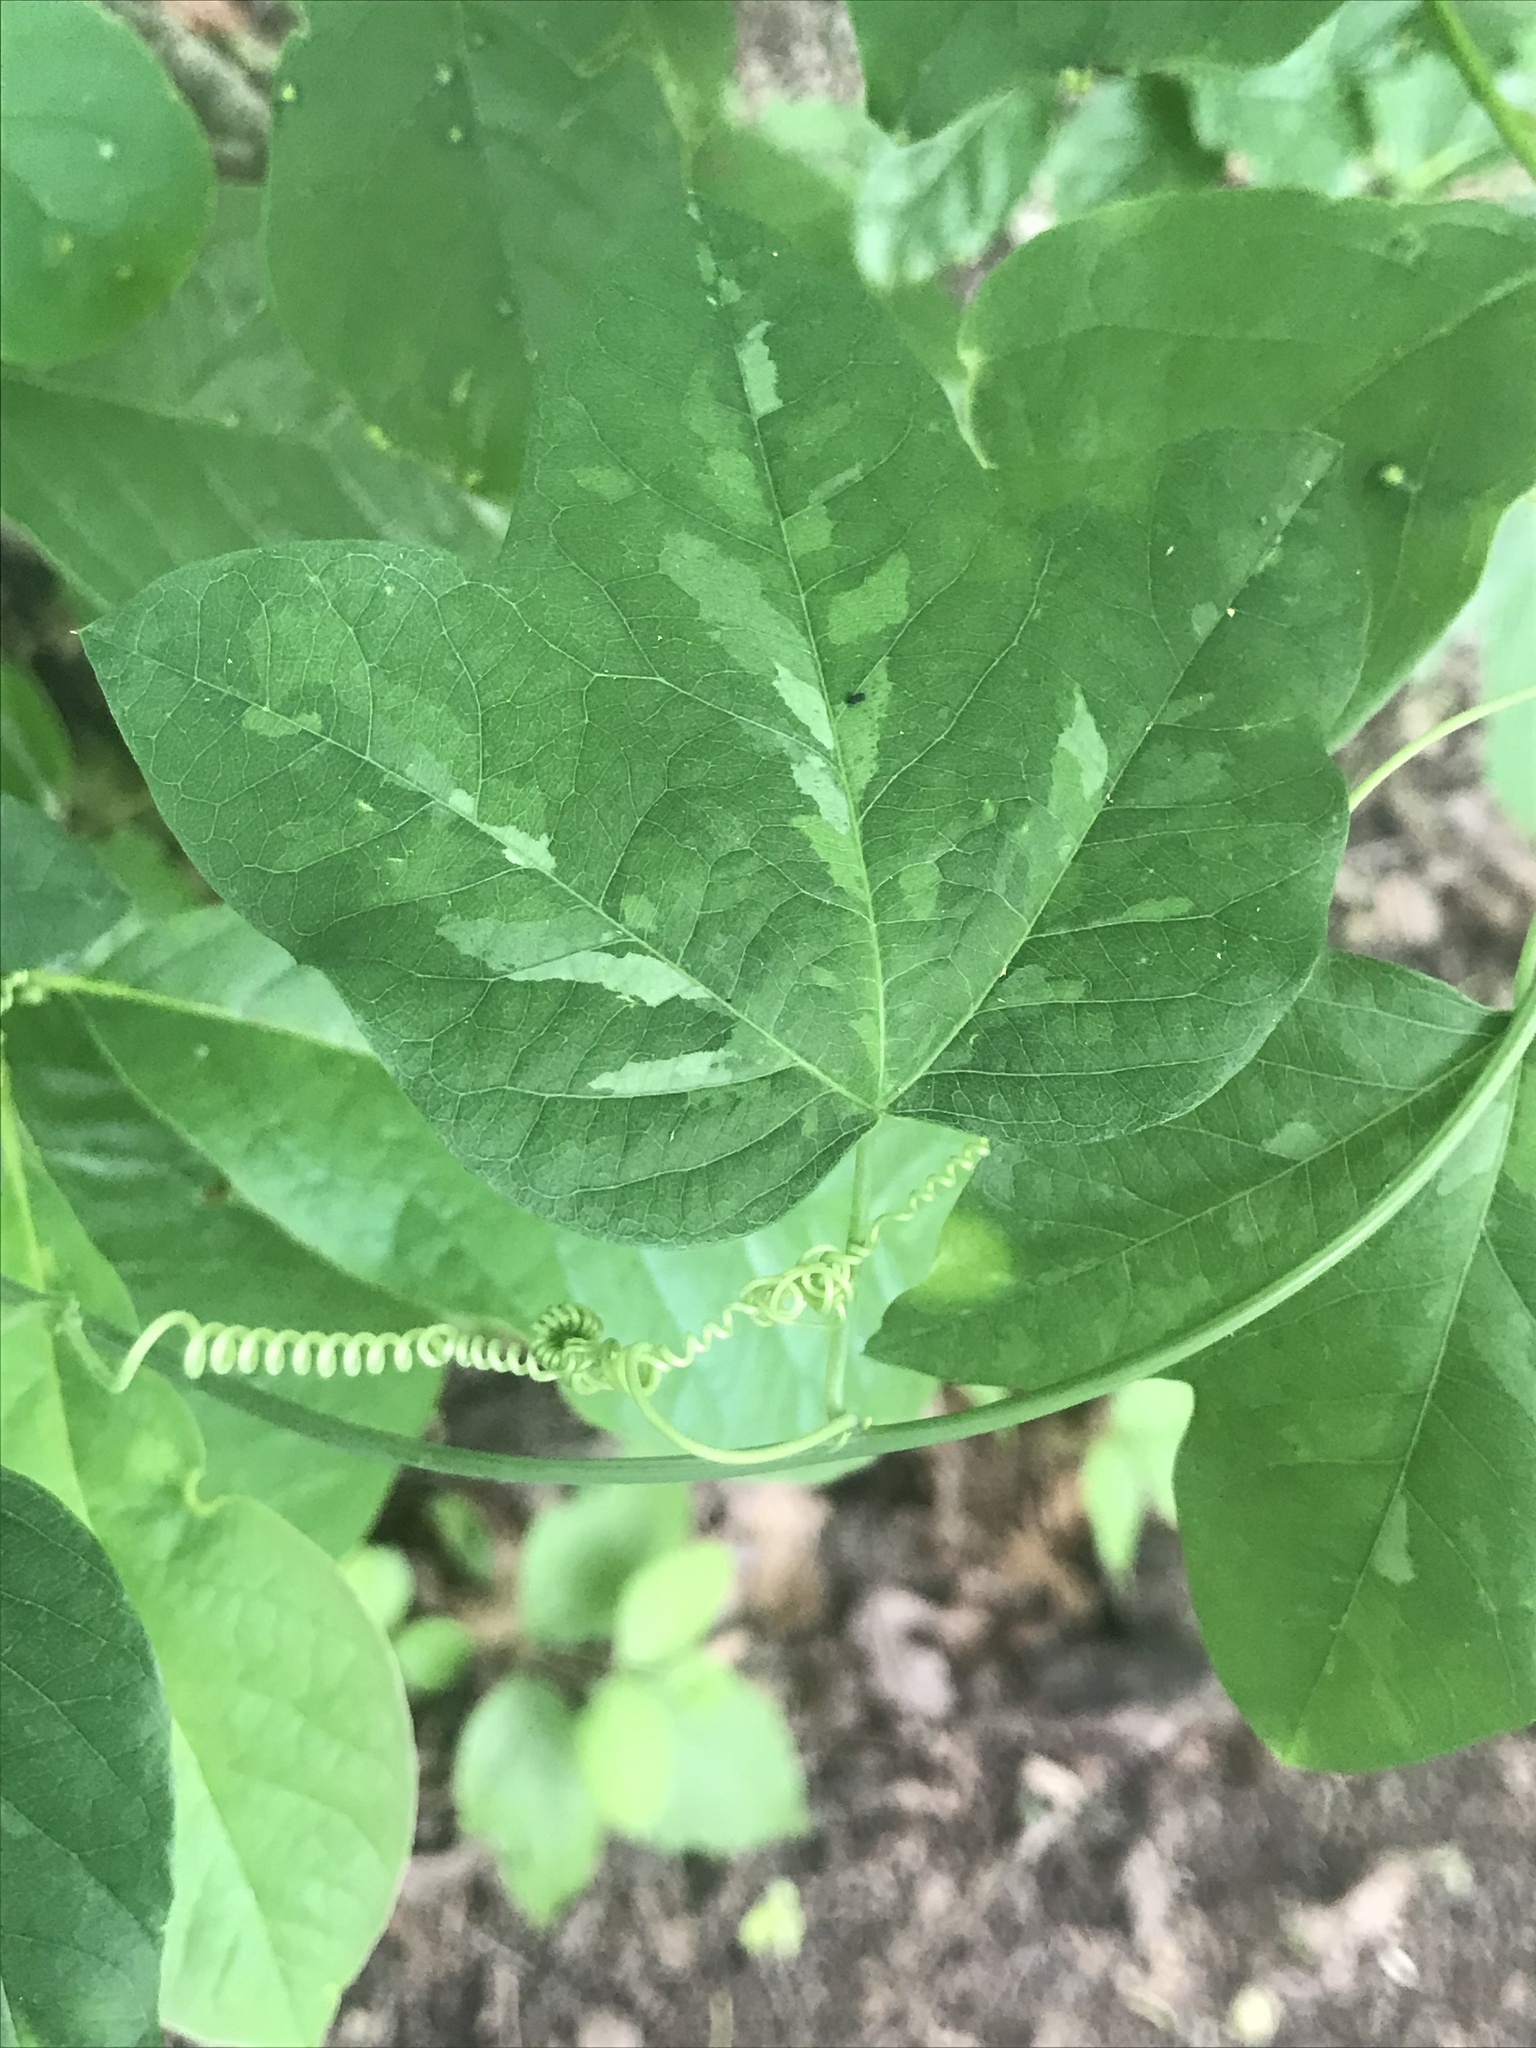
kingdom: Plantae
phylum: Tracheophyta
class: Magnoliopsida
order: Malpighiales
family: Passifloraceae
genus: Passiflora
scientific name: Passiflora lutea
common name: Yellow passionflower
